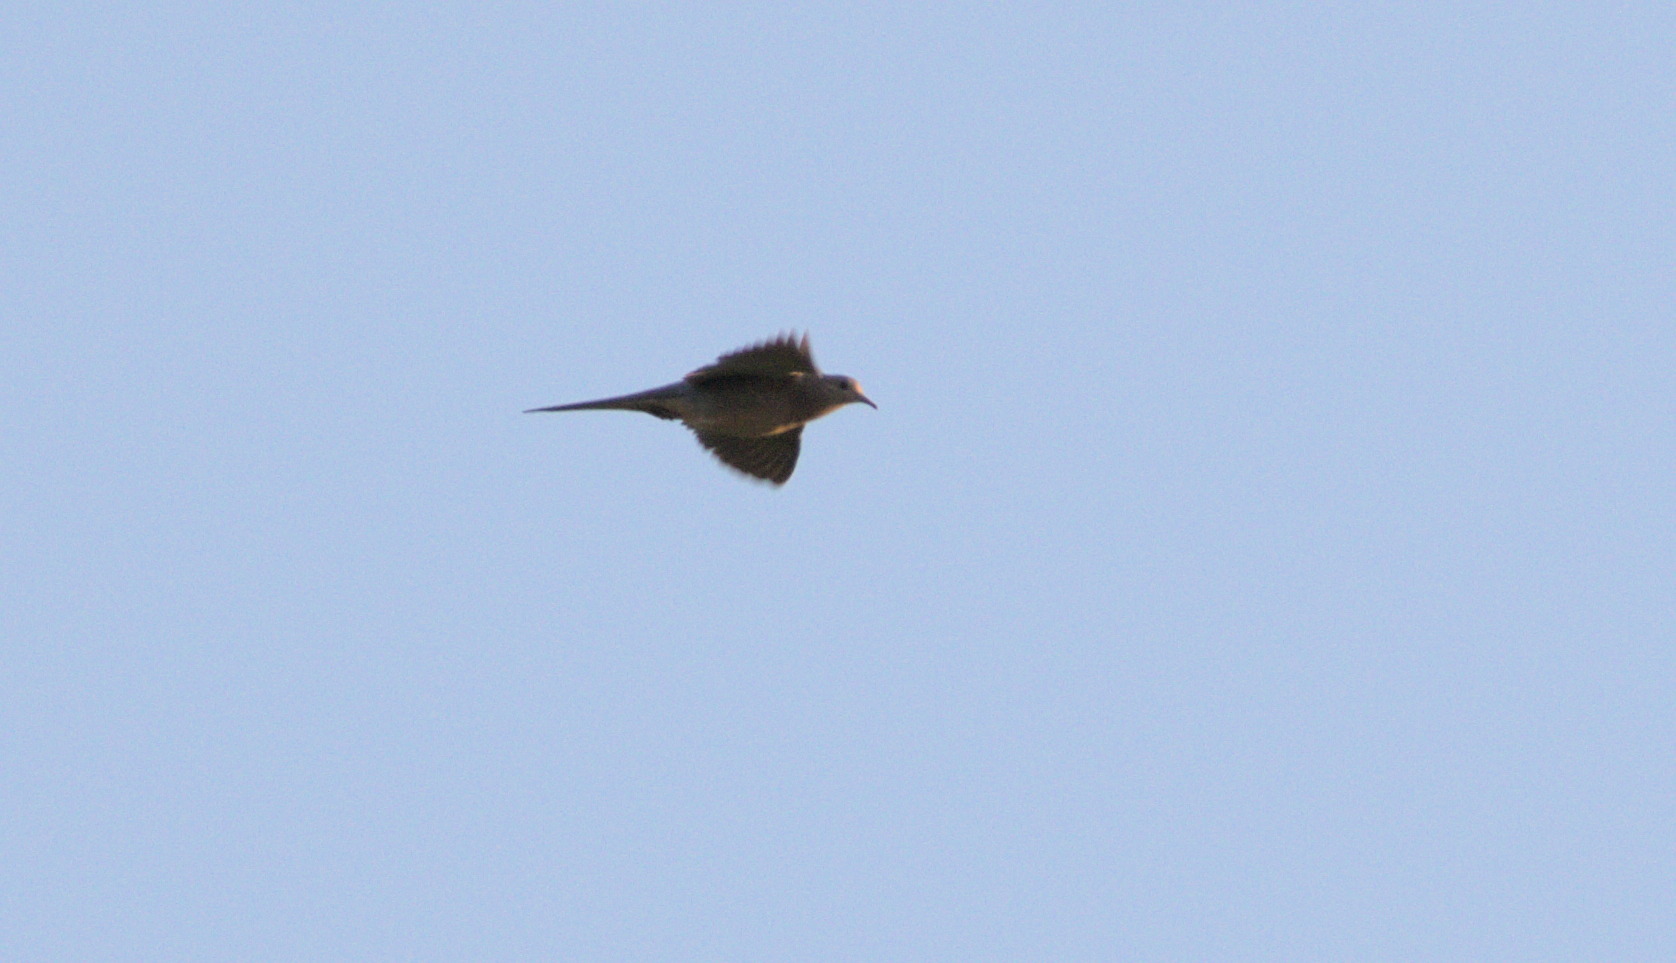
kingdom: Animalia
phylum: Chordata
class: Aves
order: Columbiformes
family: Columbidae
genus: Zenaida
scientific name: Zenaida macroura
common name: Mourning dove
